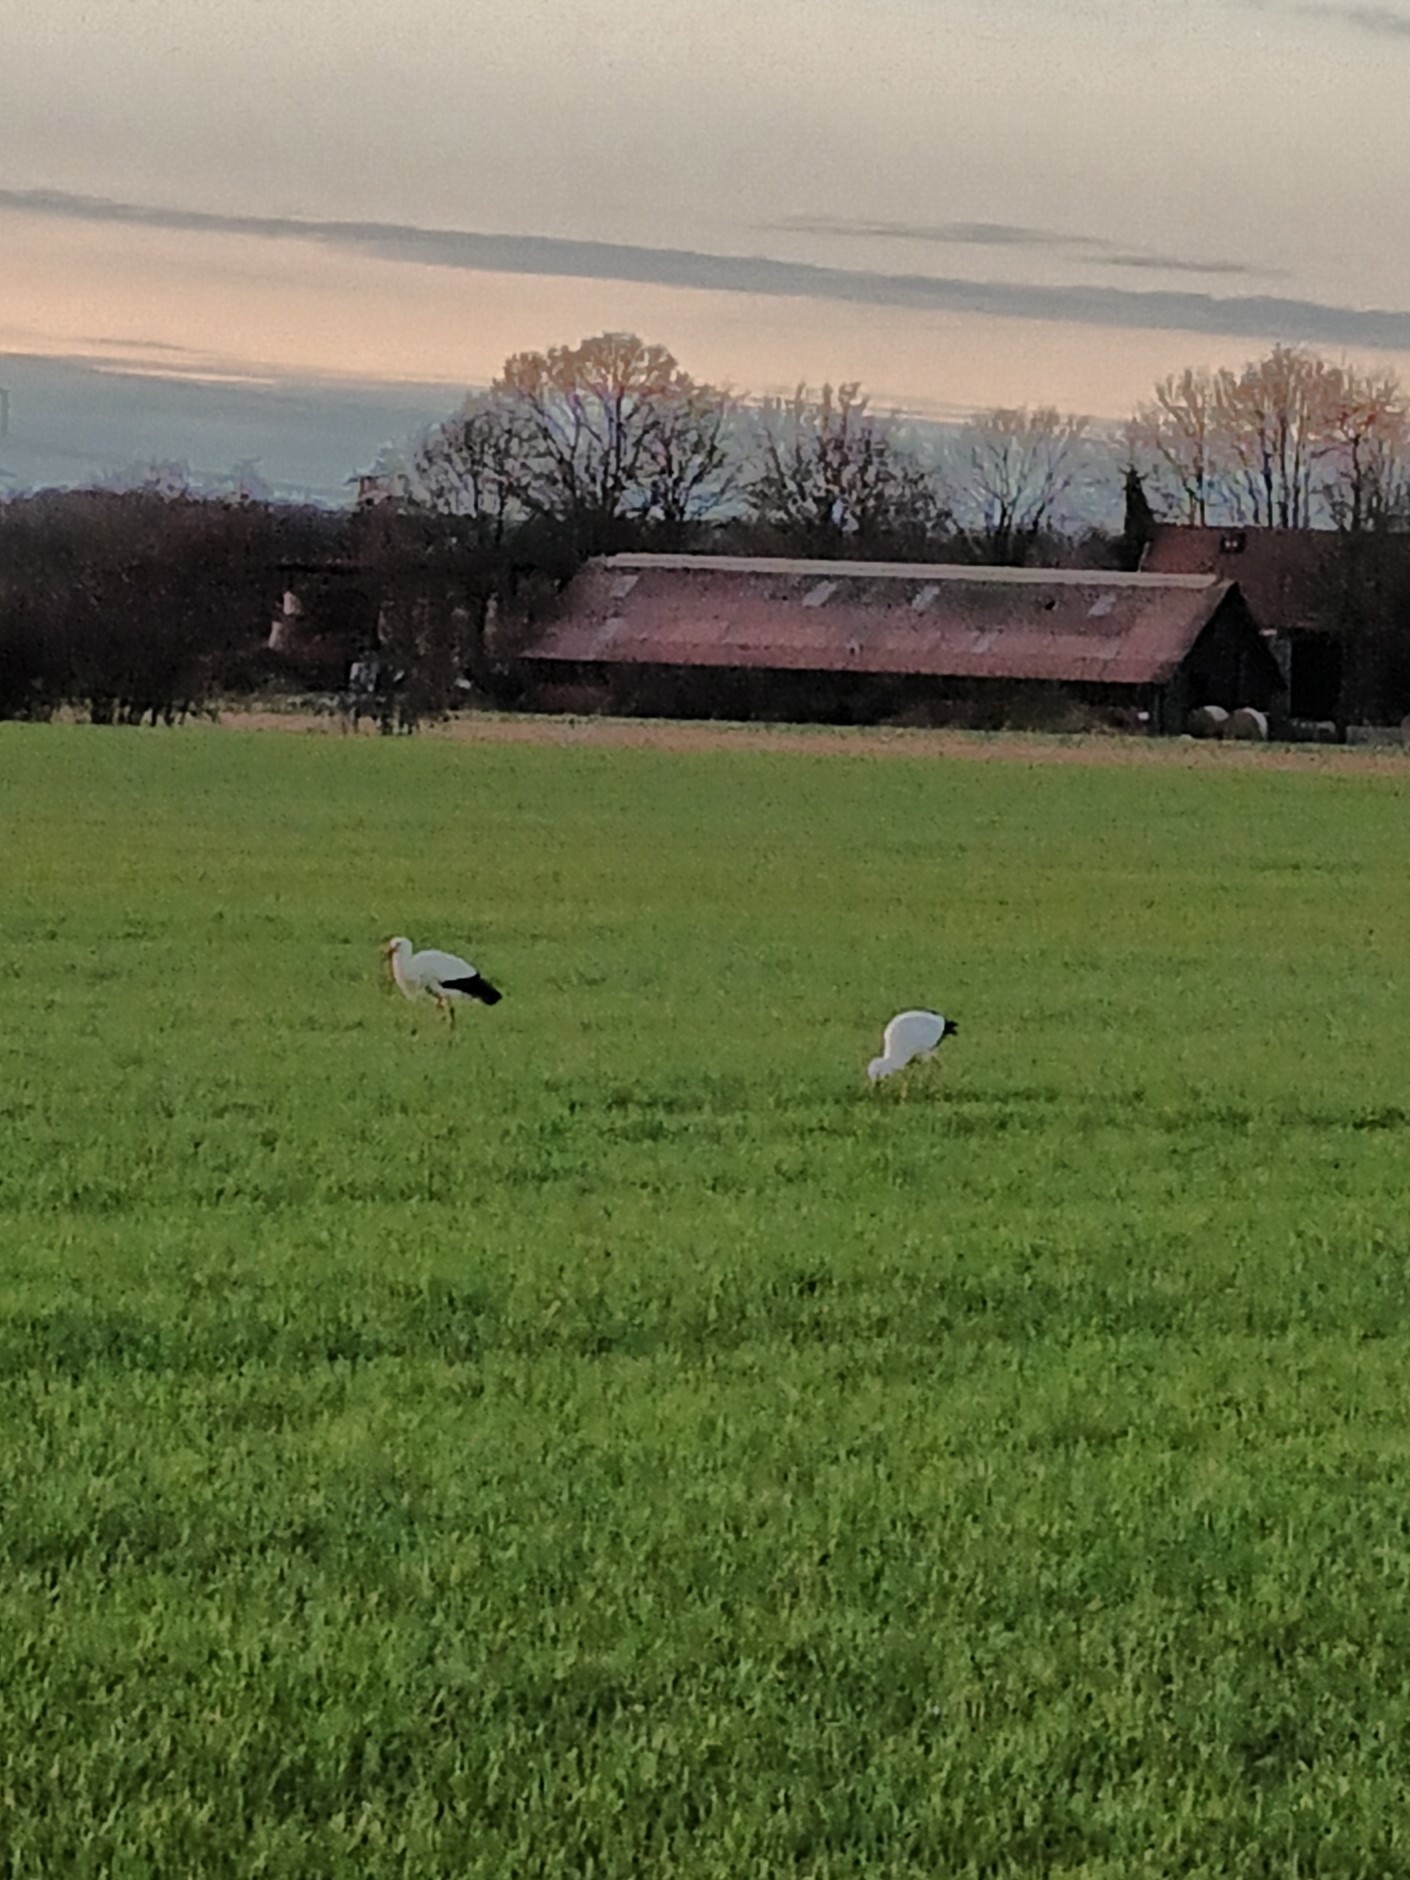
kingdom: Animalia
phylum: Chordata
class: Aves
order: Ciconiiformes
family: Ciconiidae
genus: Ciconia
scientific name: Ciconia ciconia
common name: White stork
